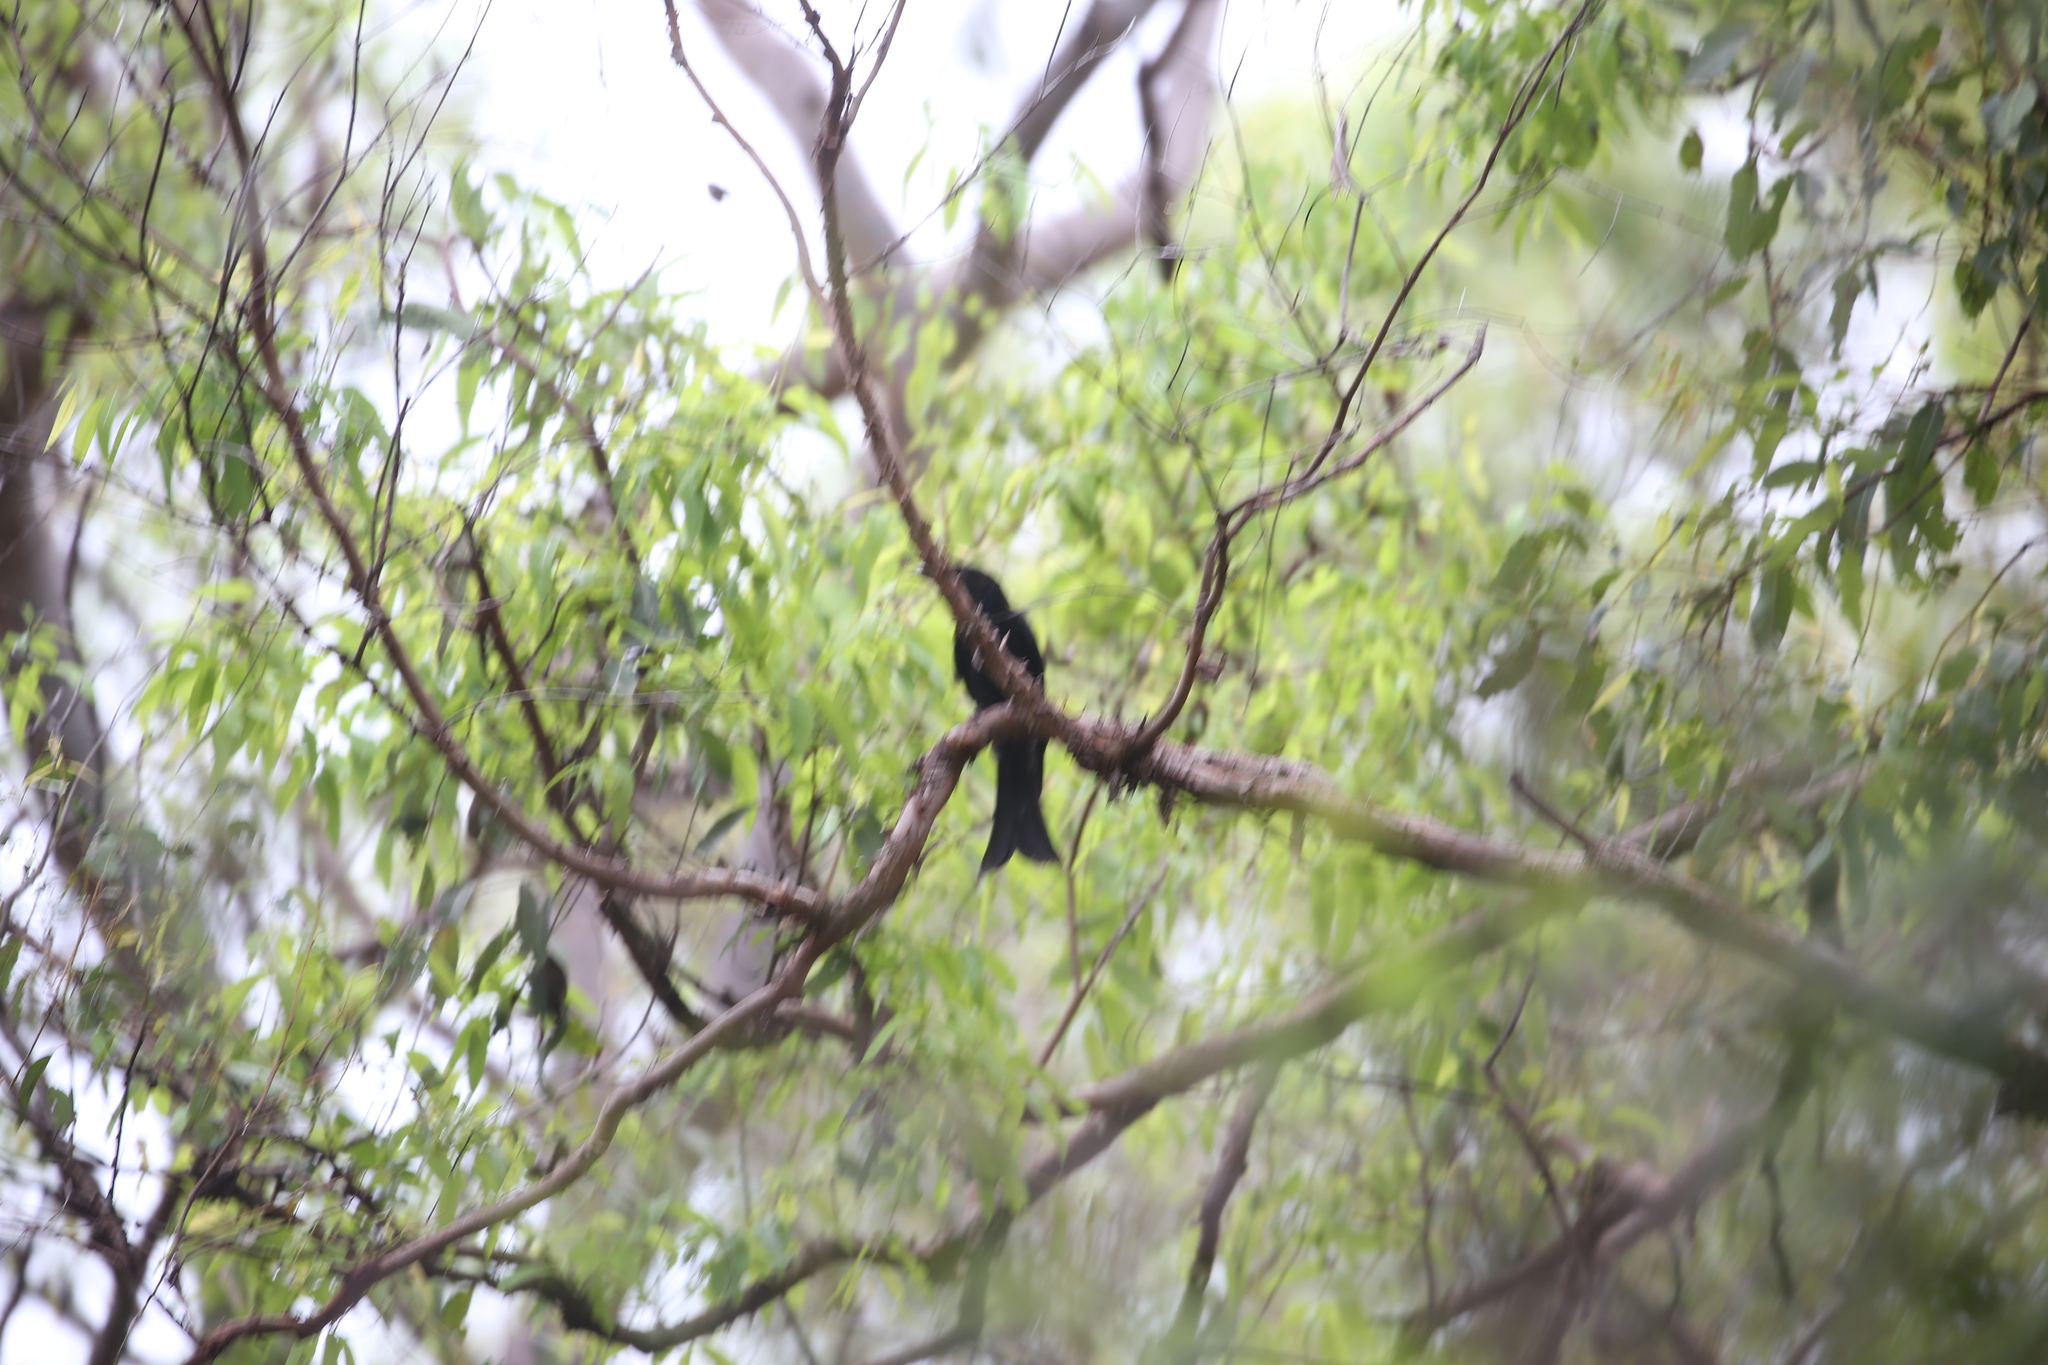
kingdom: Animalia
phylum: Chordata
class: Aves
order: Passeriformes
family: Dicruridae
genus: Dicrurus
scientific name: Dicrurus bracteatus
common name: Spangled drongo
